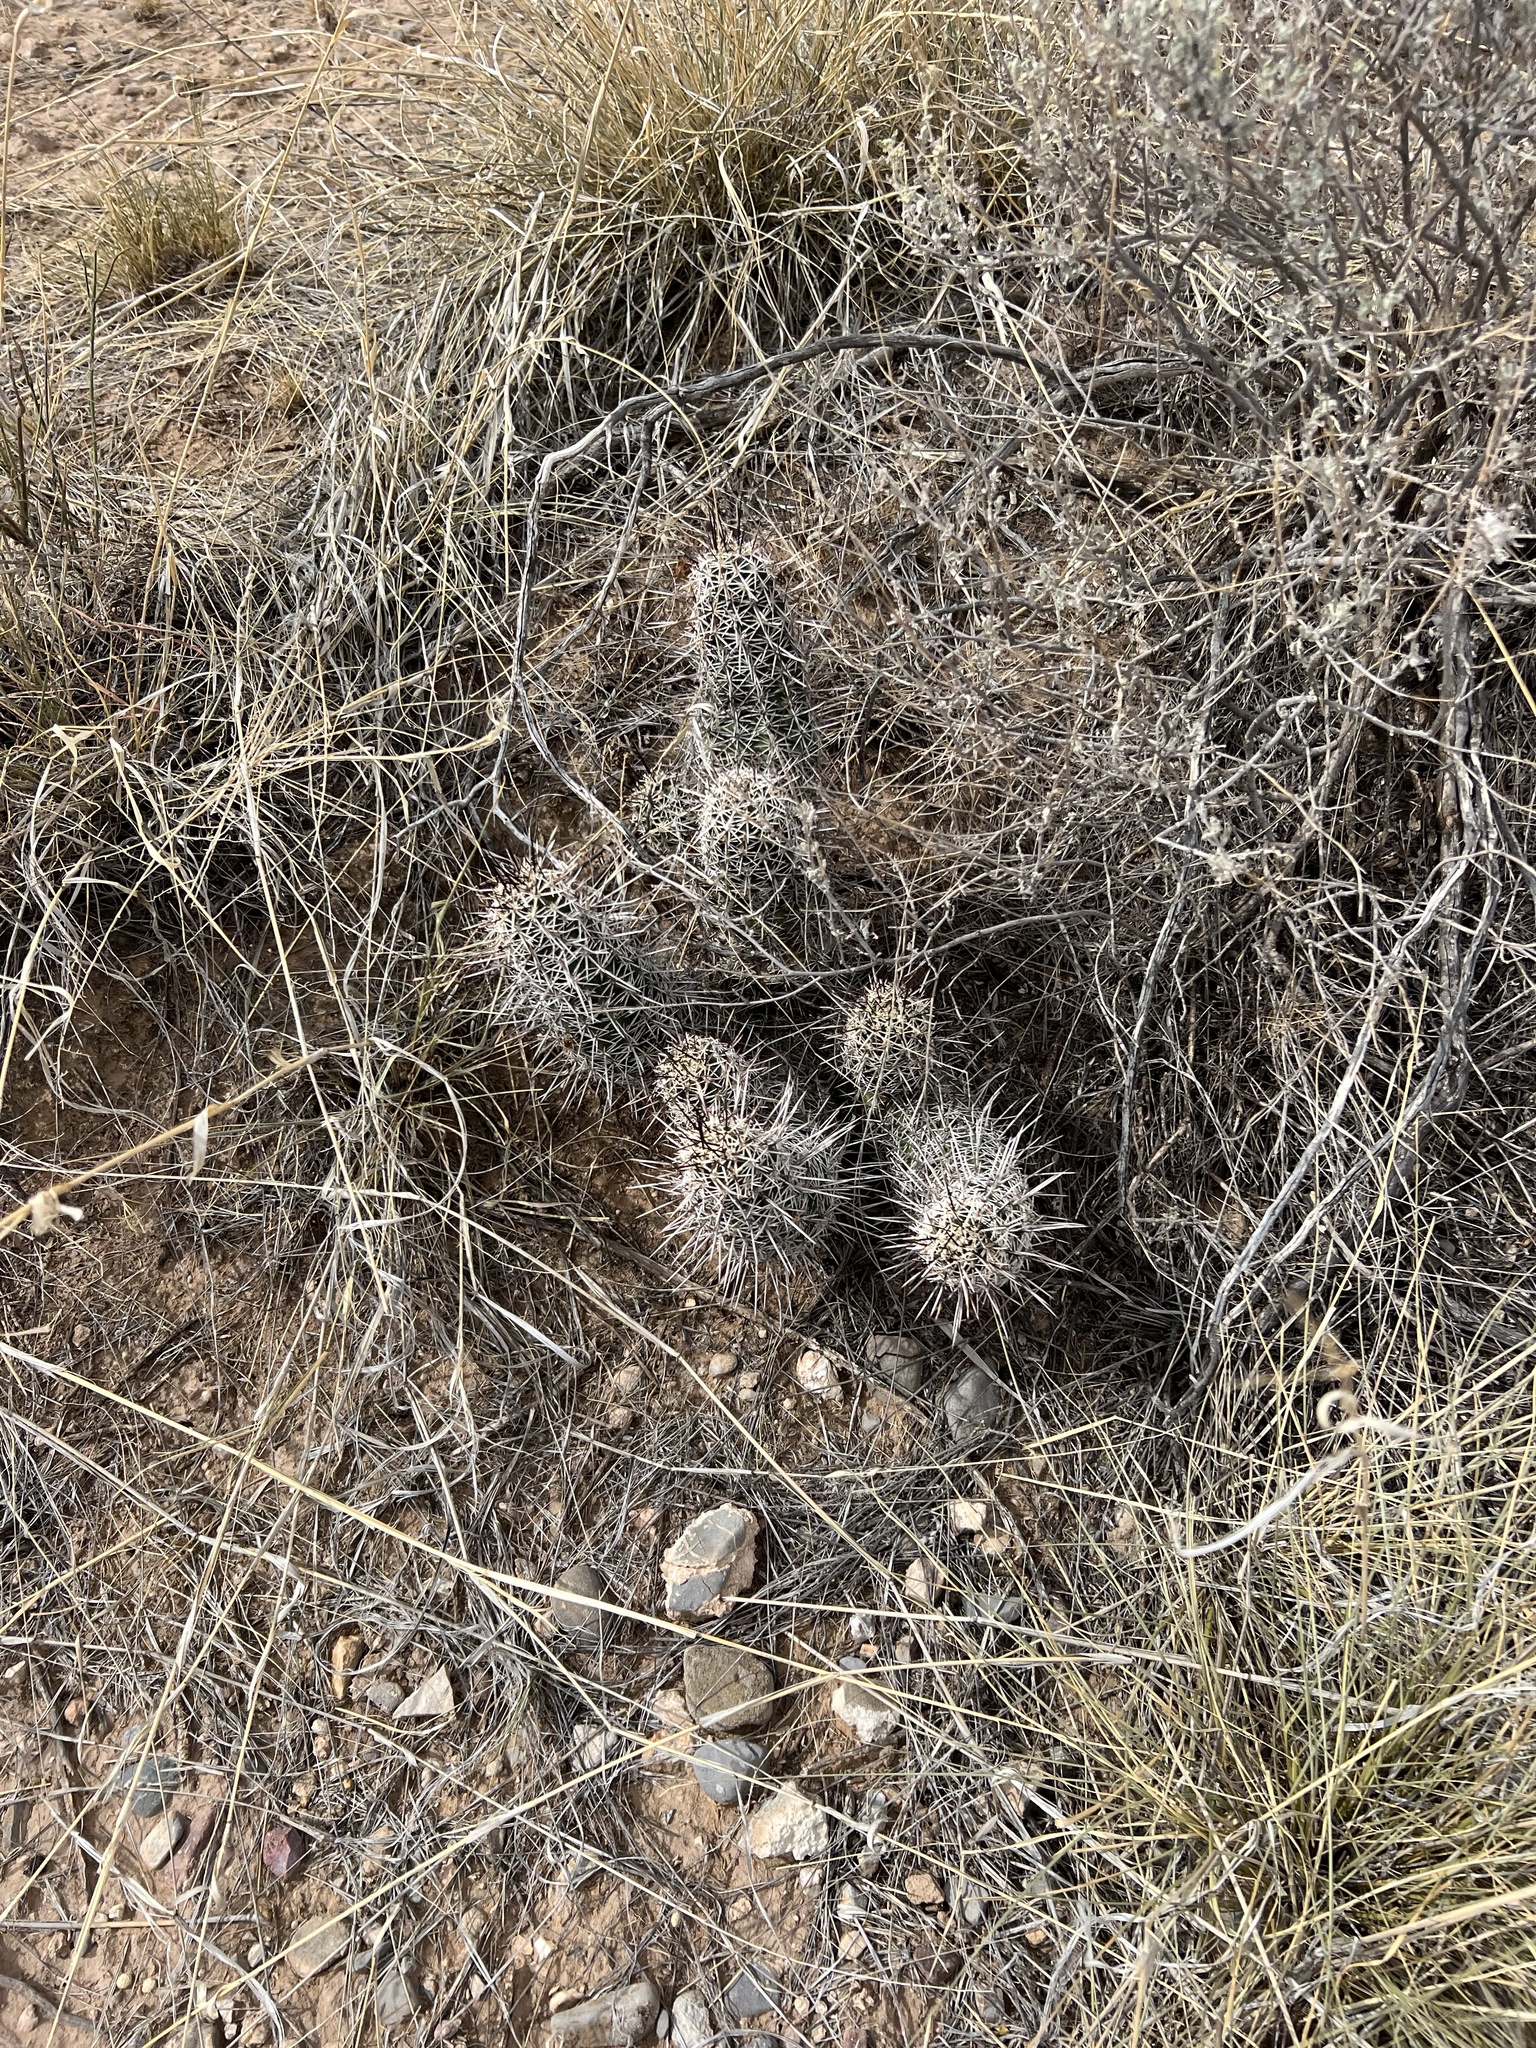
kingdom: Plantae
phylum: Tracheophyta
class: Magnoliopsida
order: Caryophyllales
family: Cactaceae
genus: Echinocereus
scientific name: Echinocereus fendleri
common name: Fendler's hedgehog cactus
